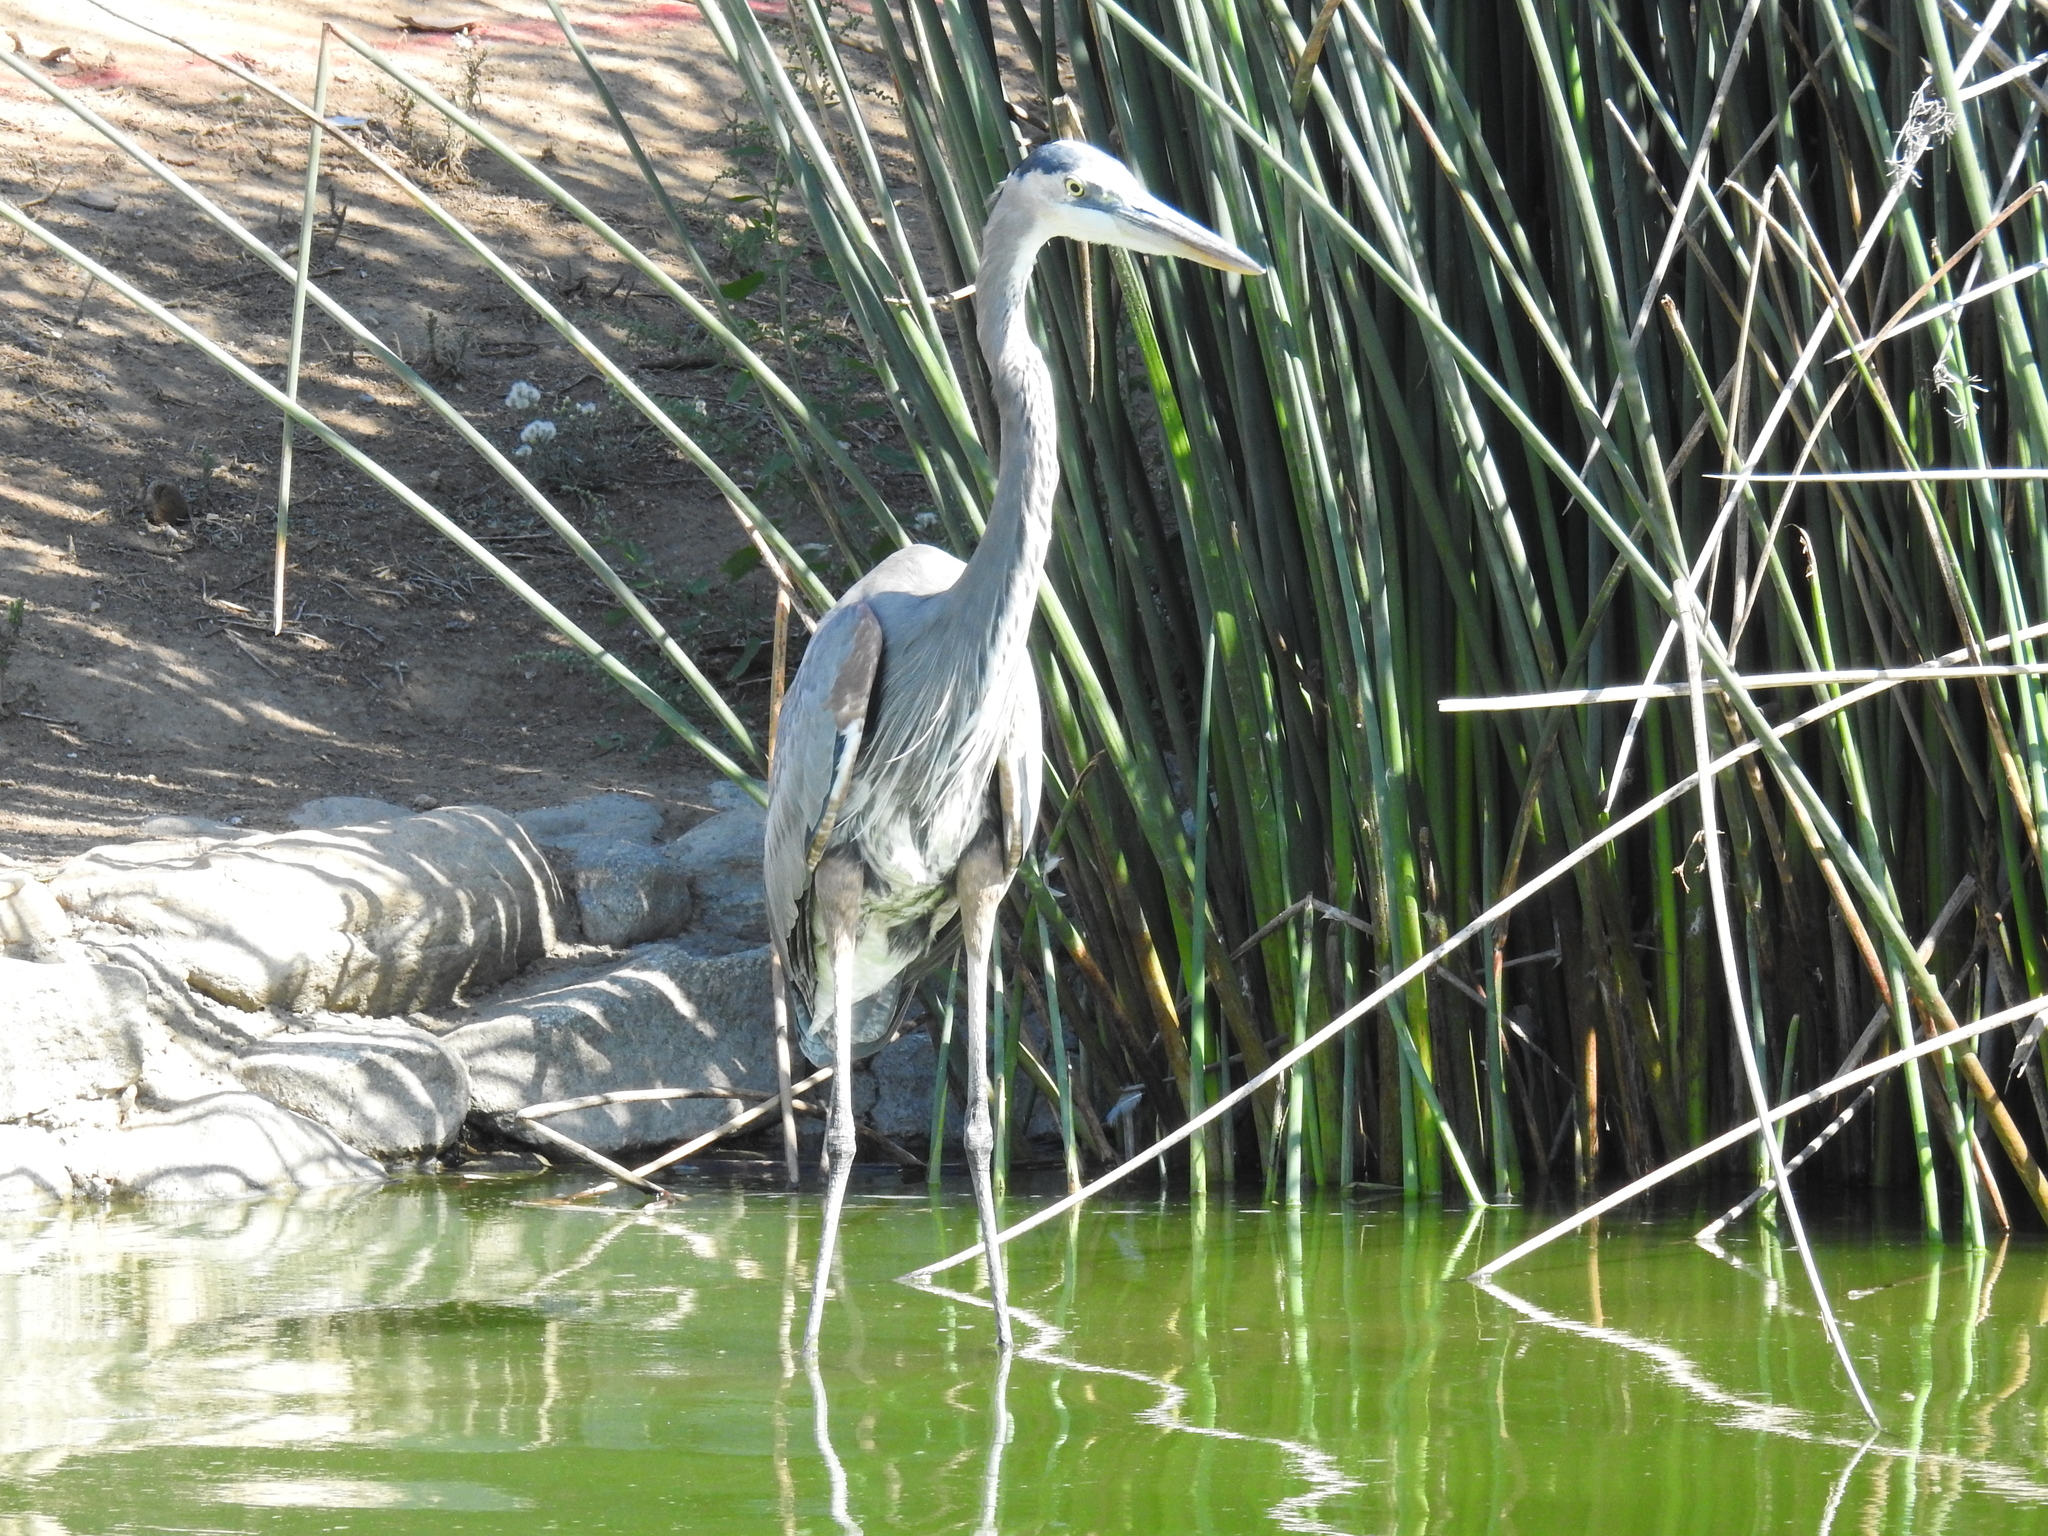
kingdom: Animalia
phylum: Chordata
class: Aves
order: Pelecaniformes
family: Ardeidae
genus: Ardea
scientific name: Ardea herodias
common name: Great blue heron
